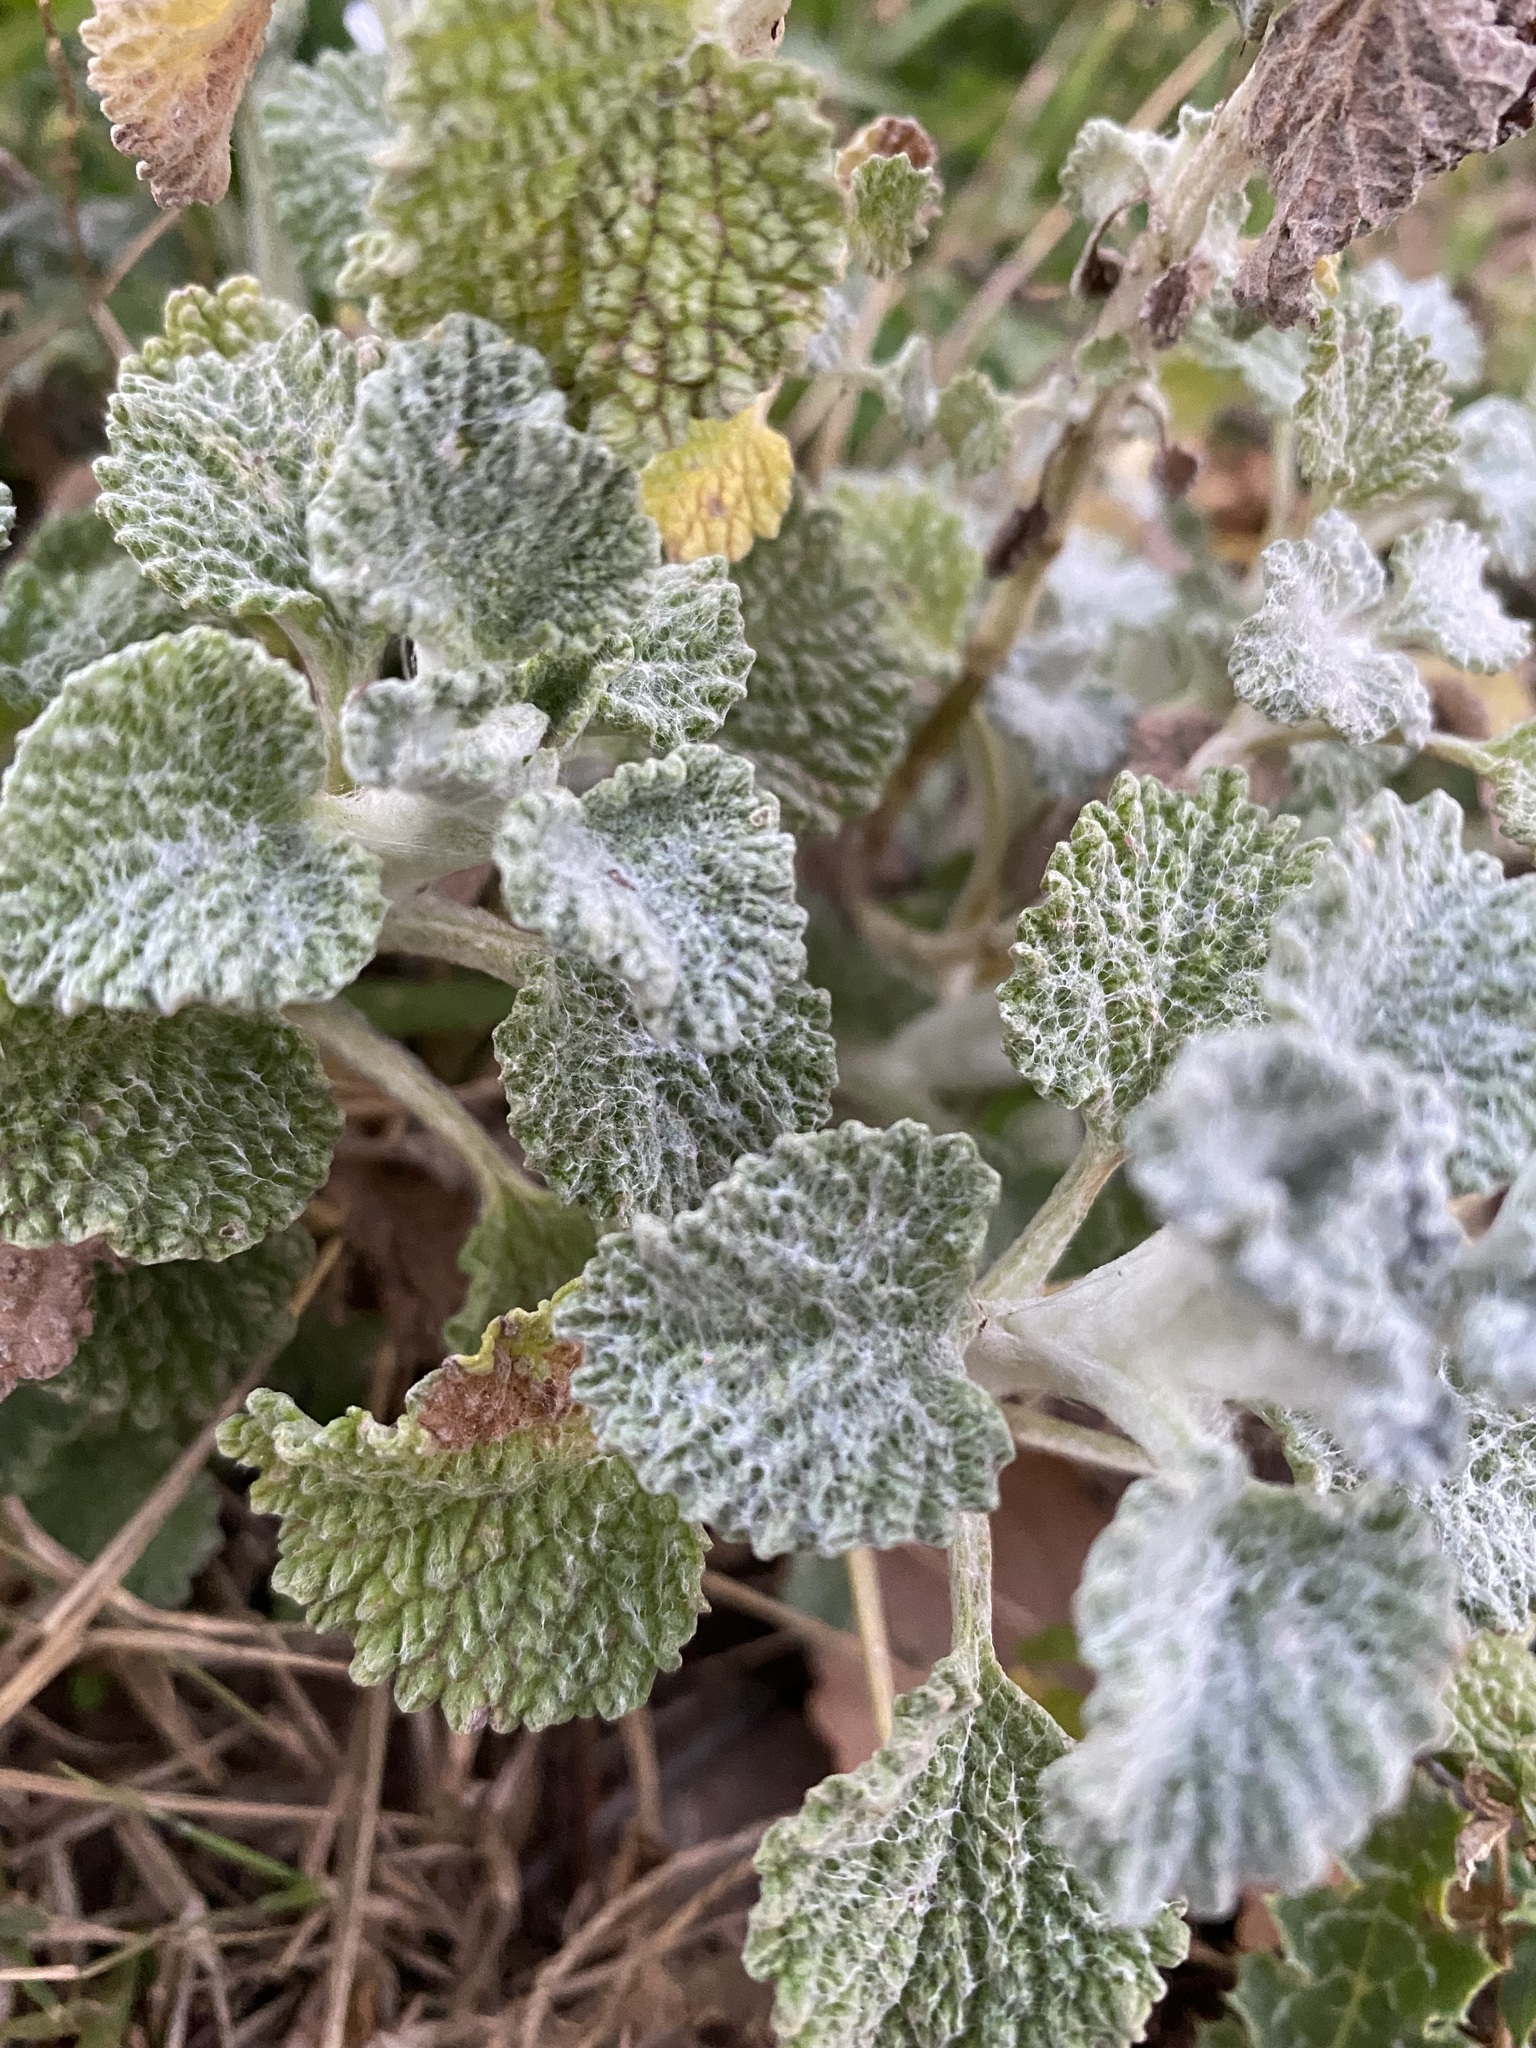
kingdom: Plantae
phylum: Tracheophyta
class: Magnoliopsida
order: Lamiales
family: Lamiaceae
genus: Marrubium
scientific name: Marrubium vulgare
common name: Horehound
